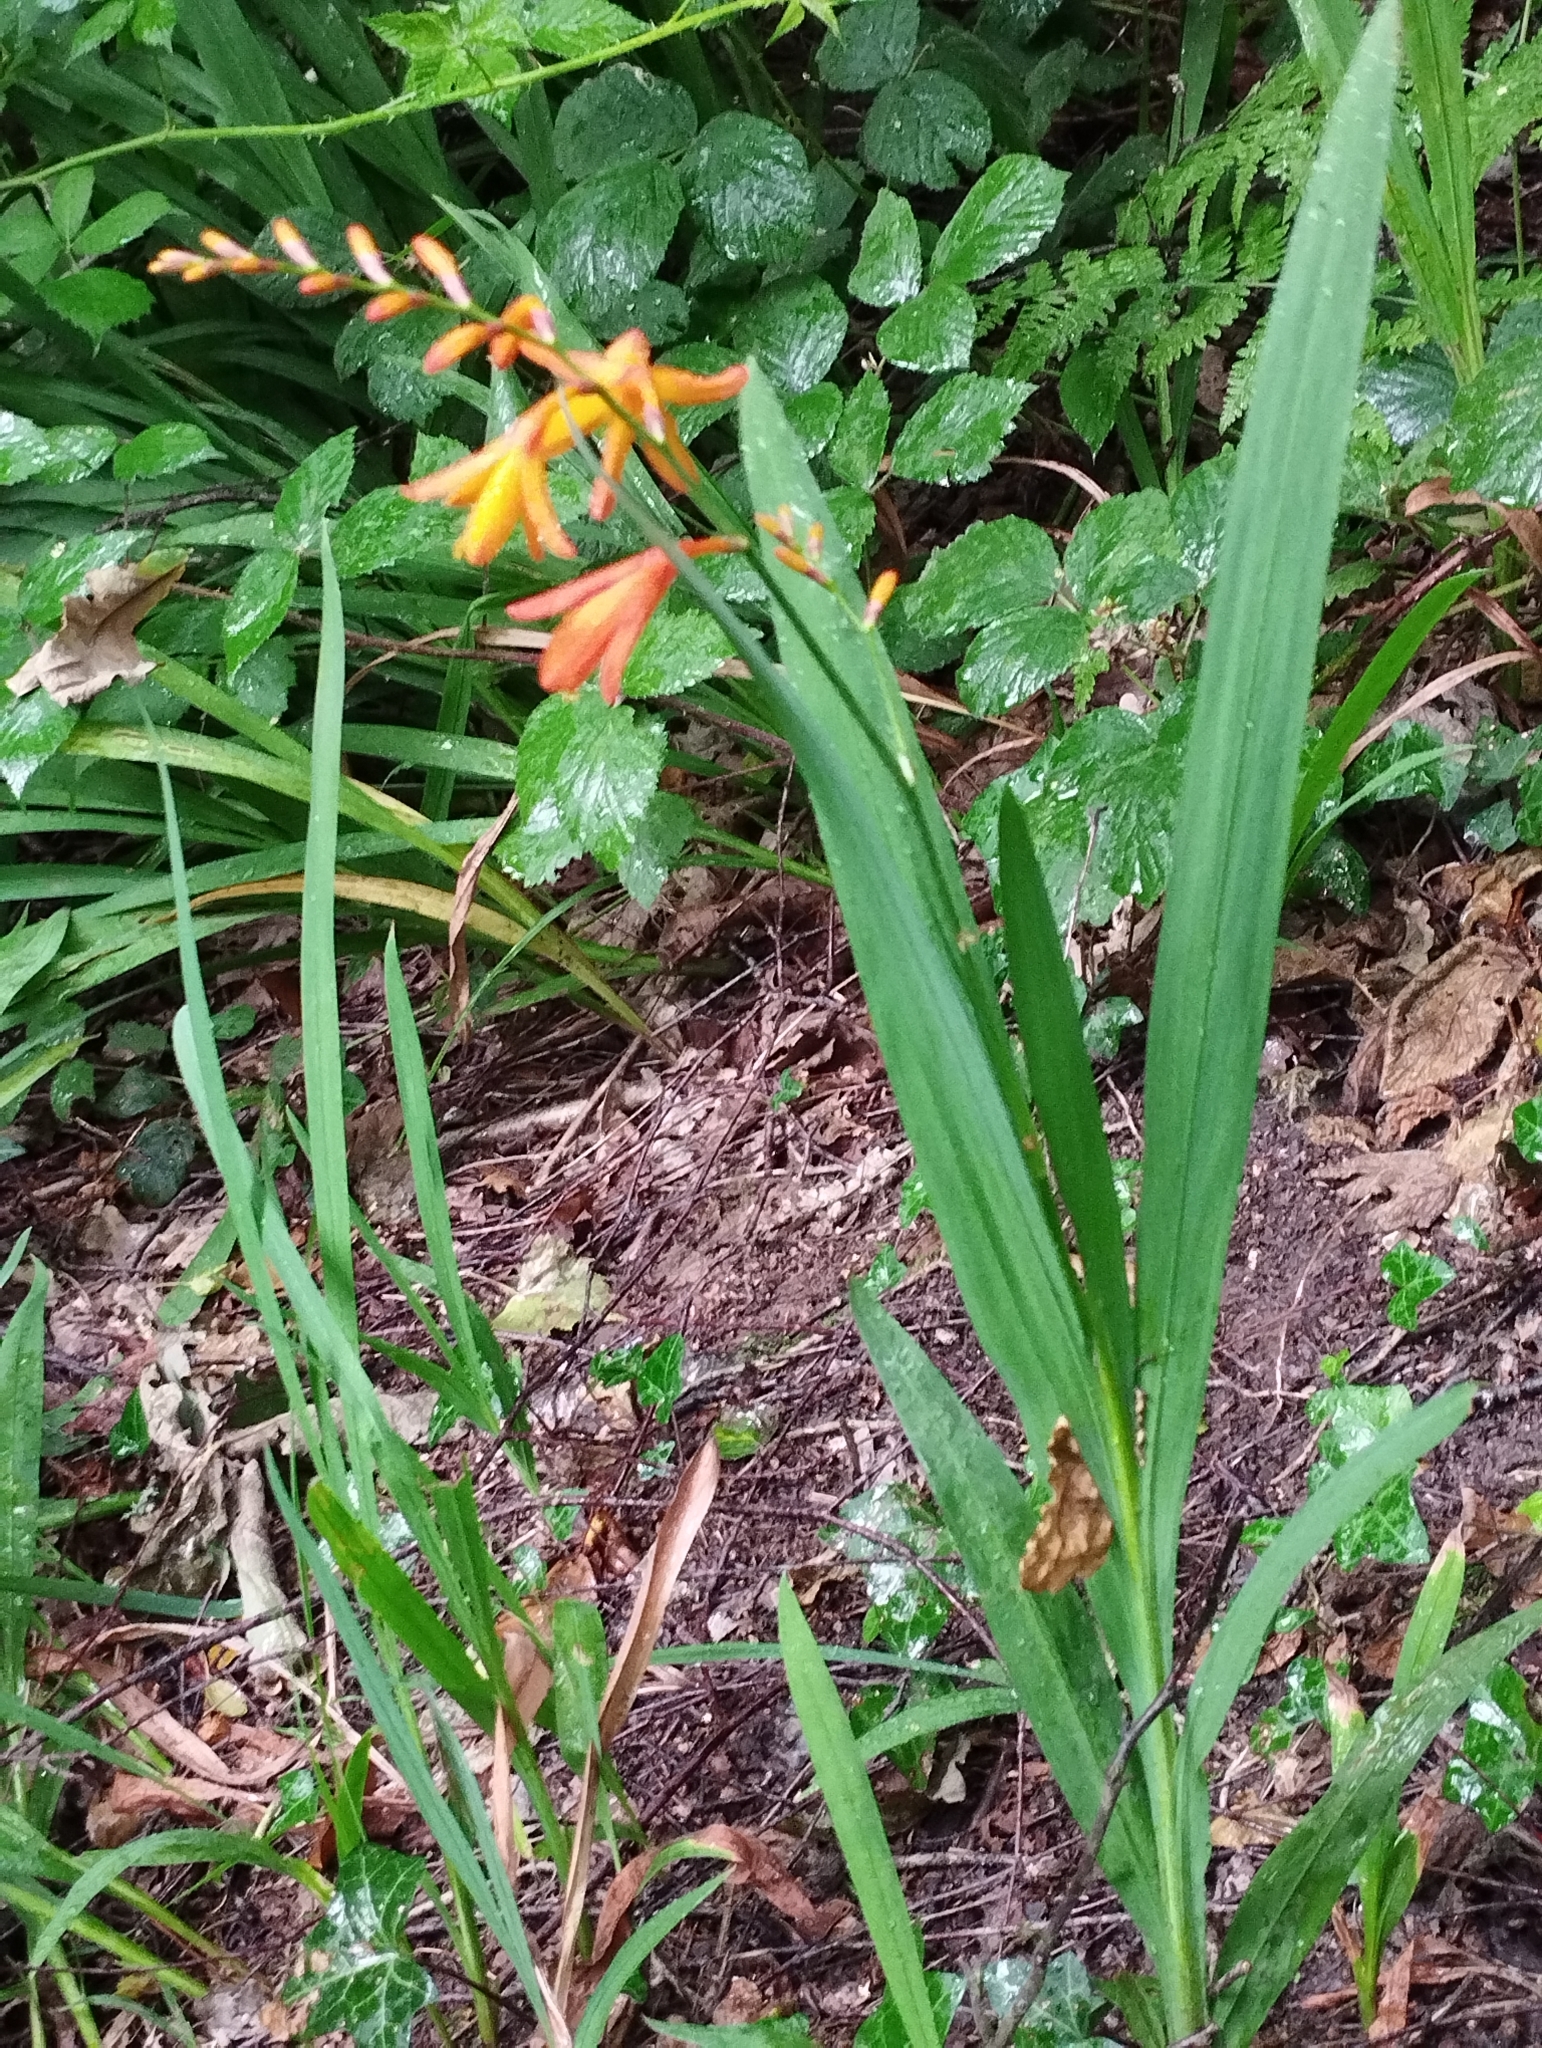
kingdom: Plantae
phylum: Tracheophyta
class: Liliopsida
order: Asparagales
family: Iridaceae
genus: Crocosmia
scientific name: Crocosmia crocosmiiflora
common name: Montbretia
